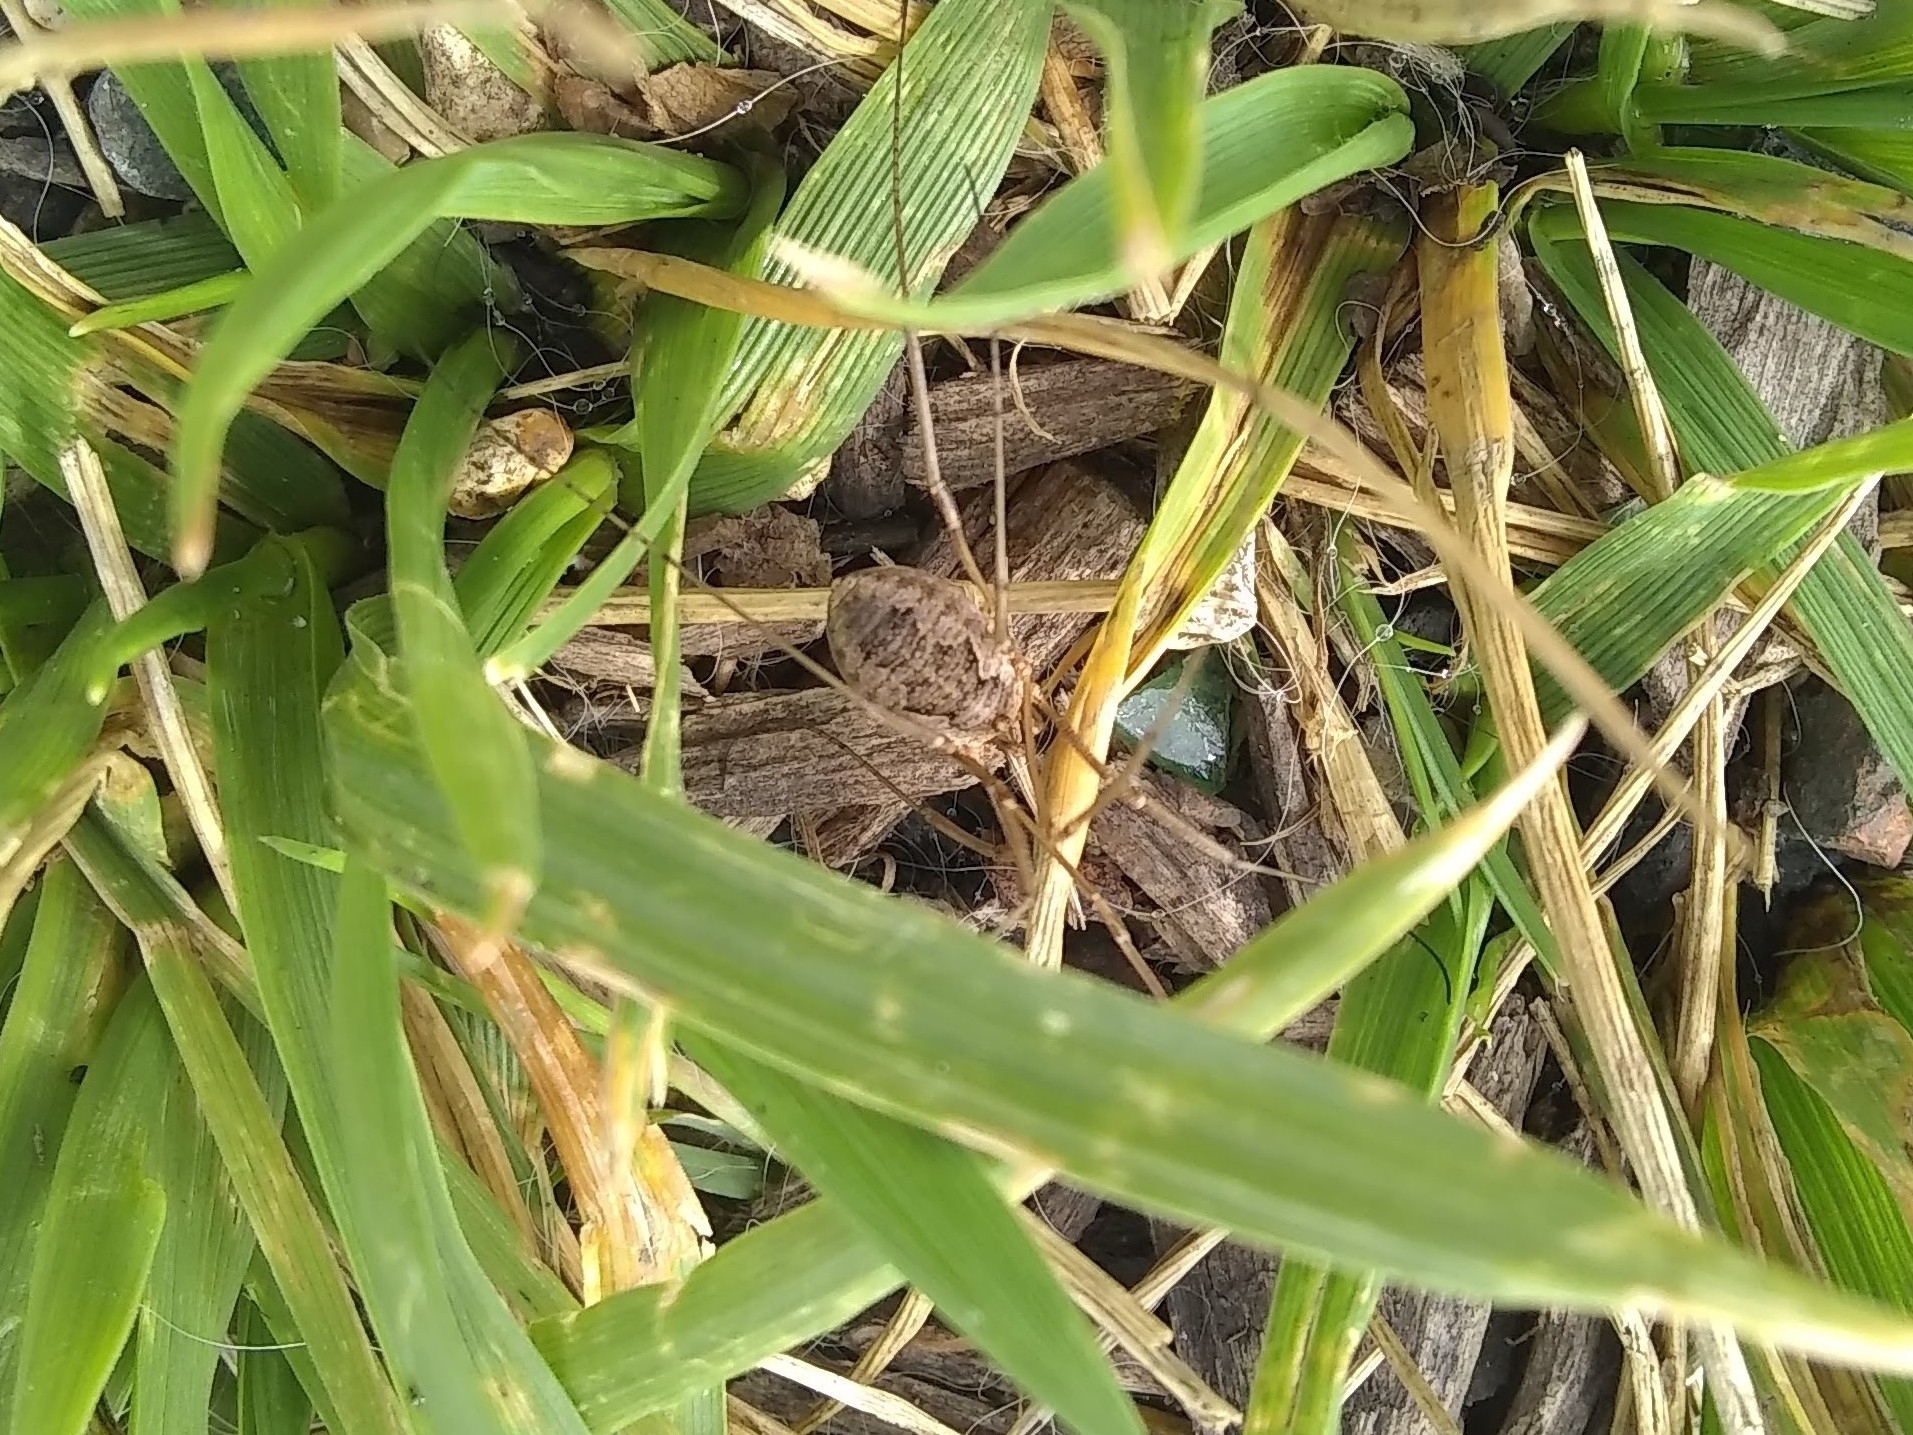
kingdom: Animalia
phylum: Arthropoda
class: Arachnida
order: Opiliones
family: Phalangiidae
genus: Phalangium
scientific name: Phalangium opilio
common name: Daddy longleg
